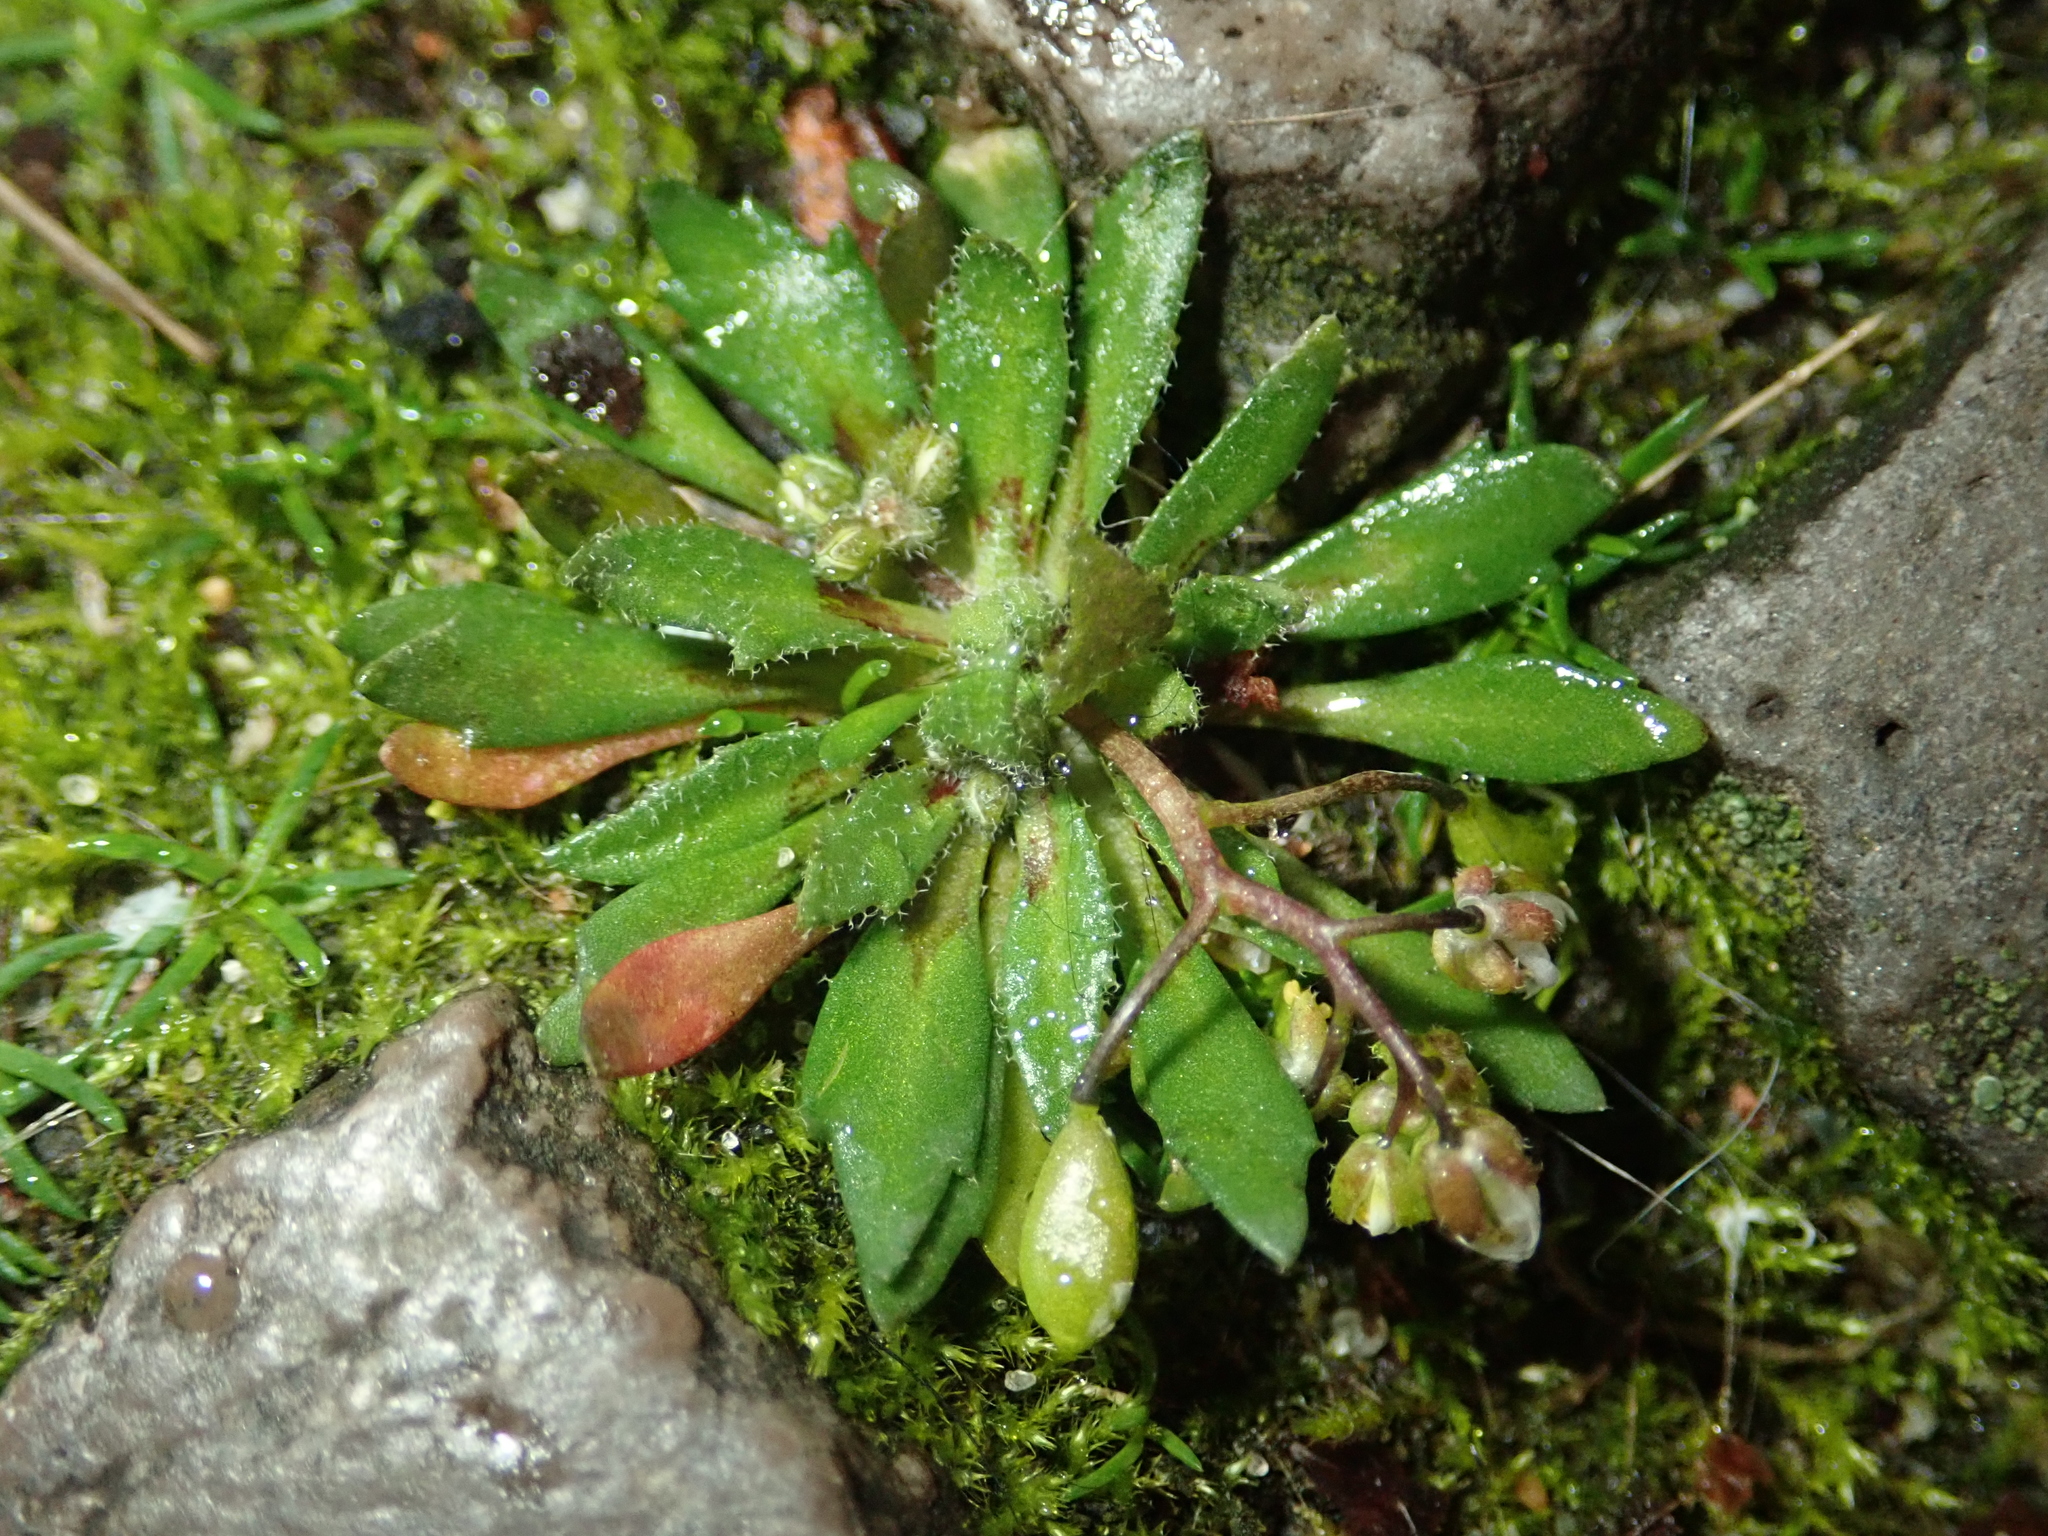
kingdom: Plantae
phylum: Tracheophyta
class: Magnoliopsida
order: Brassicales
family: Brassicaceae
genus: Draba
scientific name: Draba verna
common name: Spring draba
